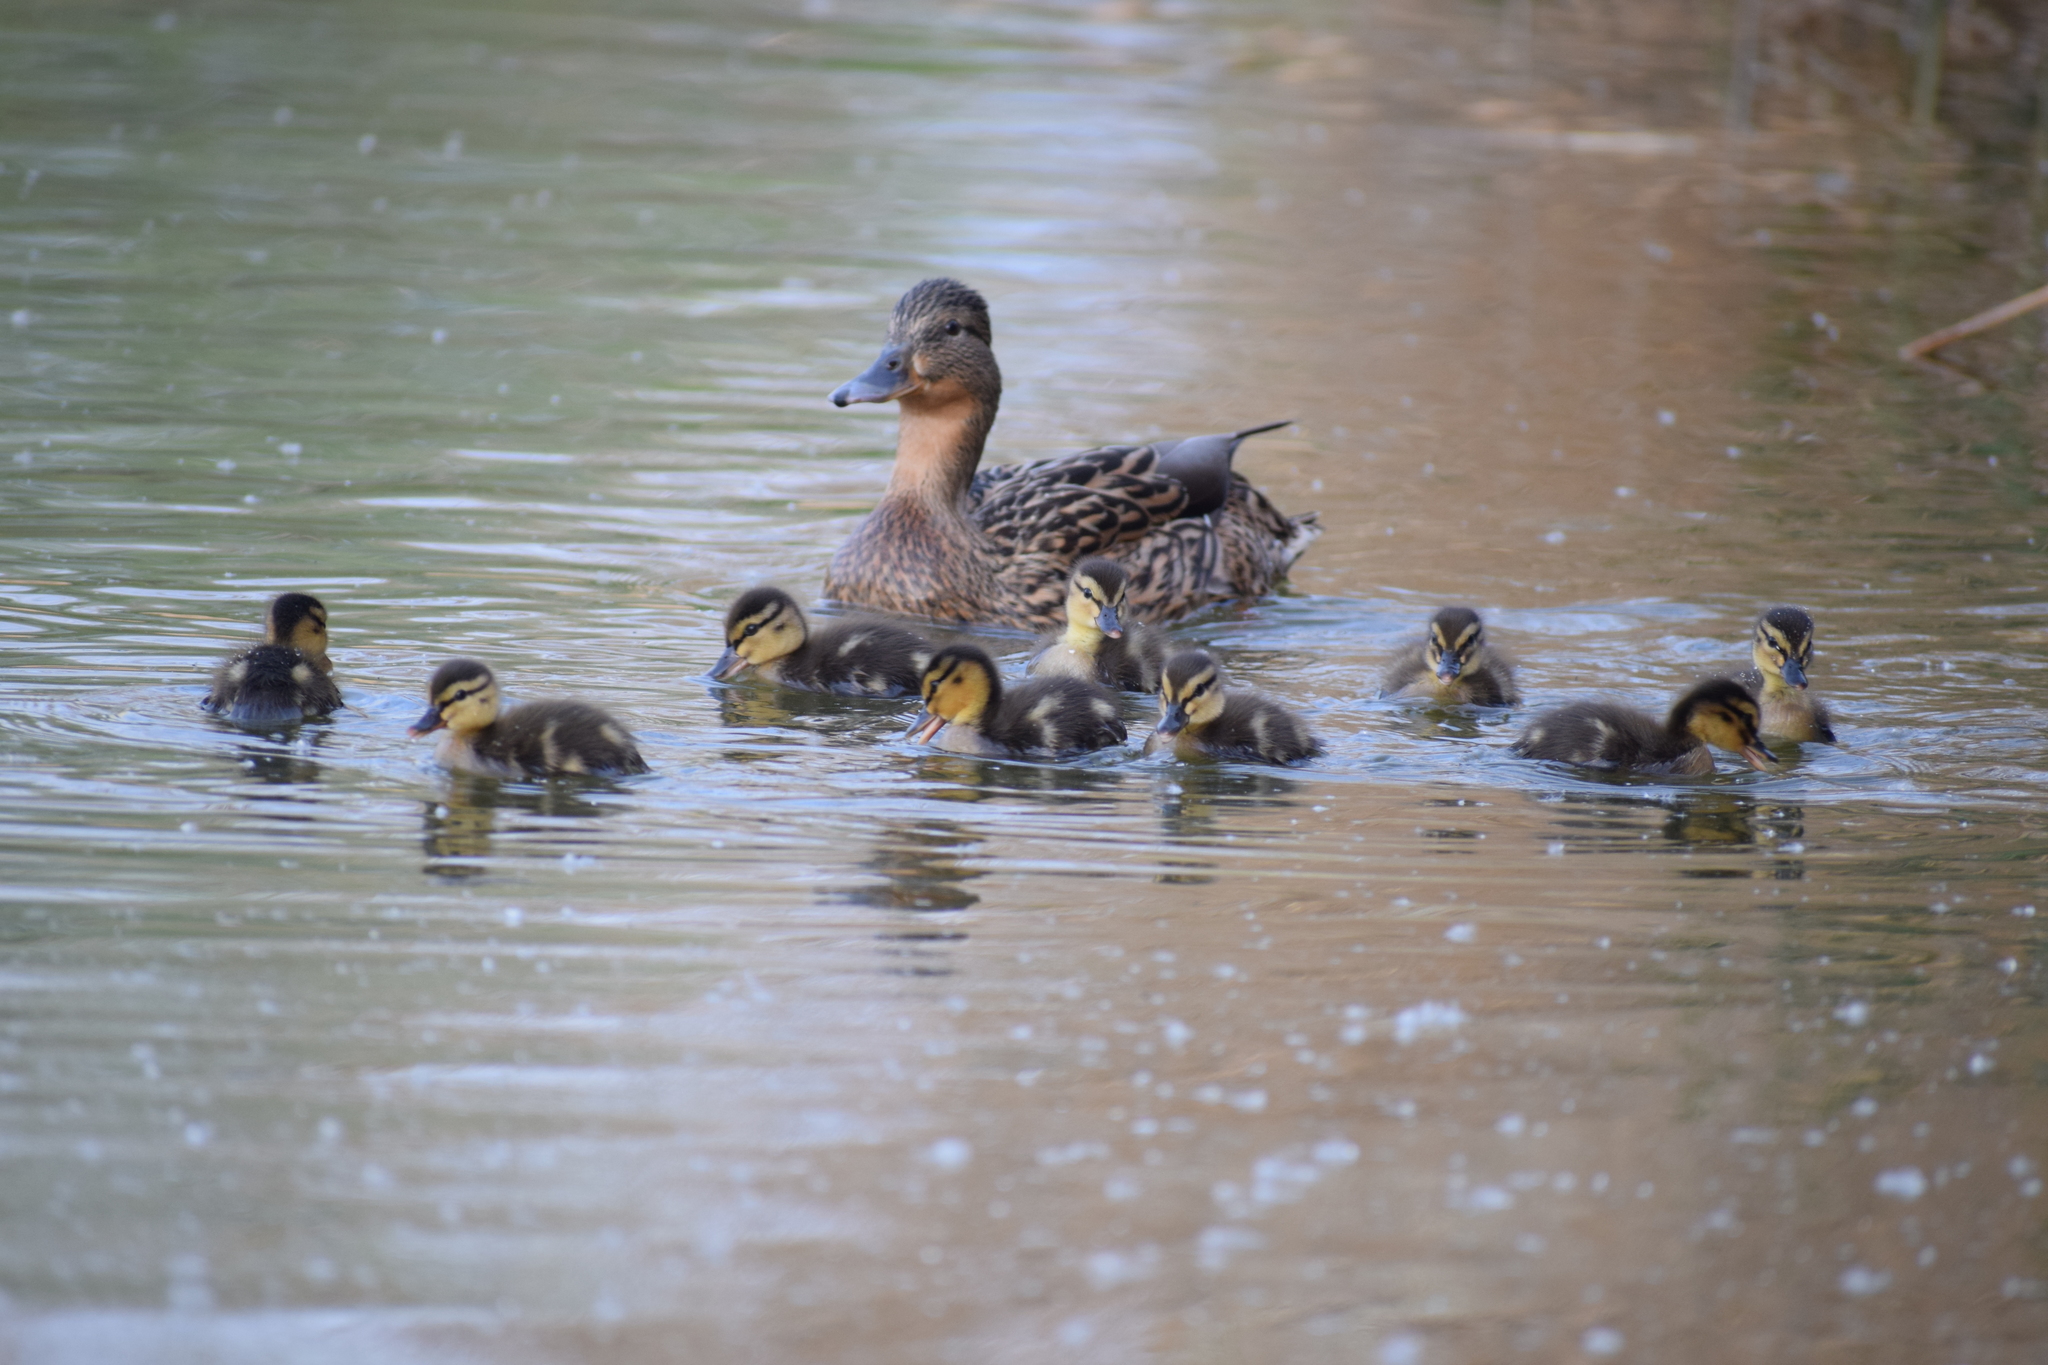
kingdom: Animalia
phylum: Chordata
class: Aves
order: Anseriformes
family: Anatidae
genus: Anas
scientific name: Anas platyrhynchos
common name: Mallard
